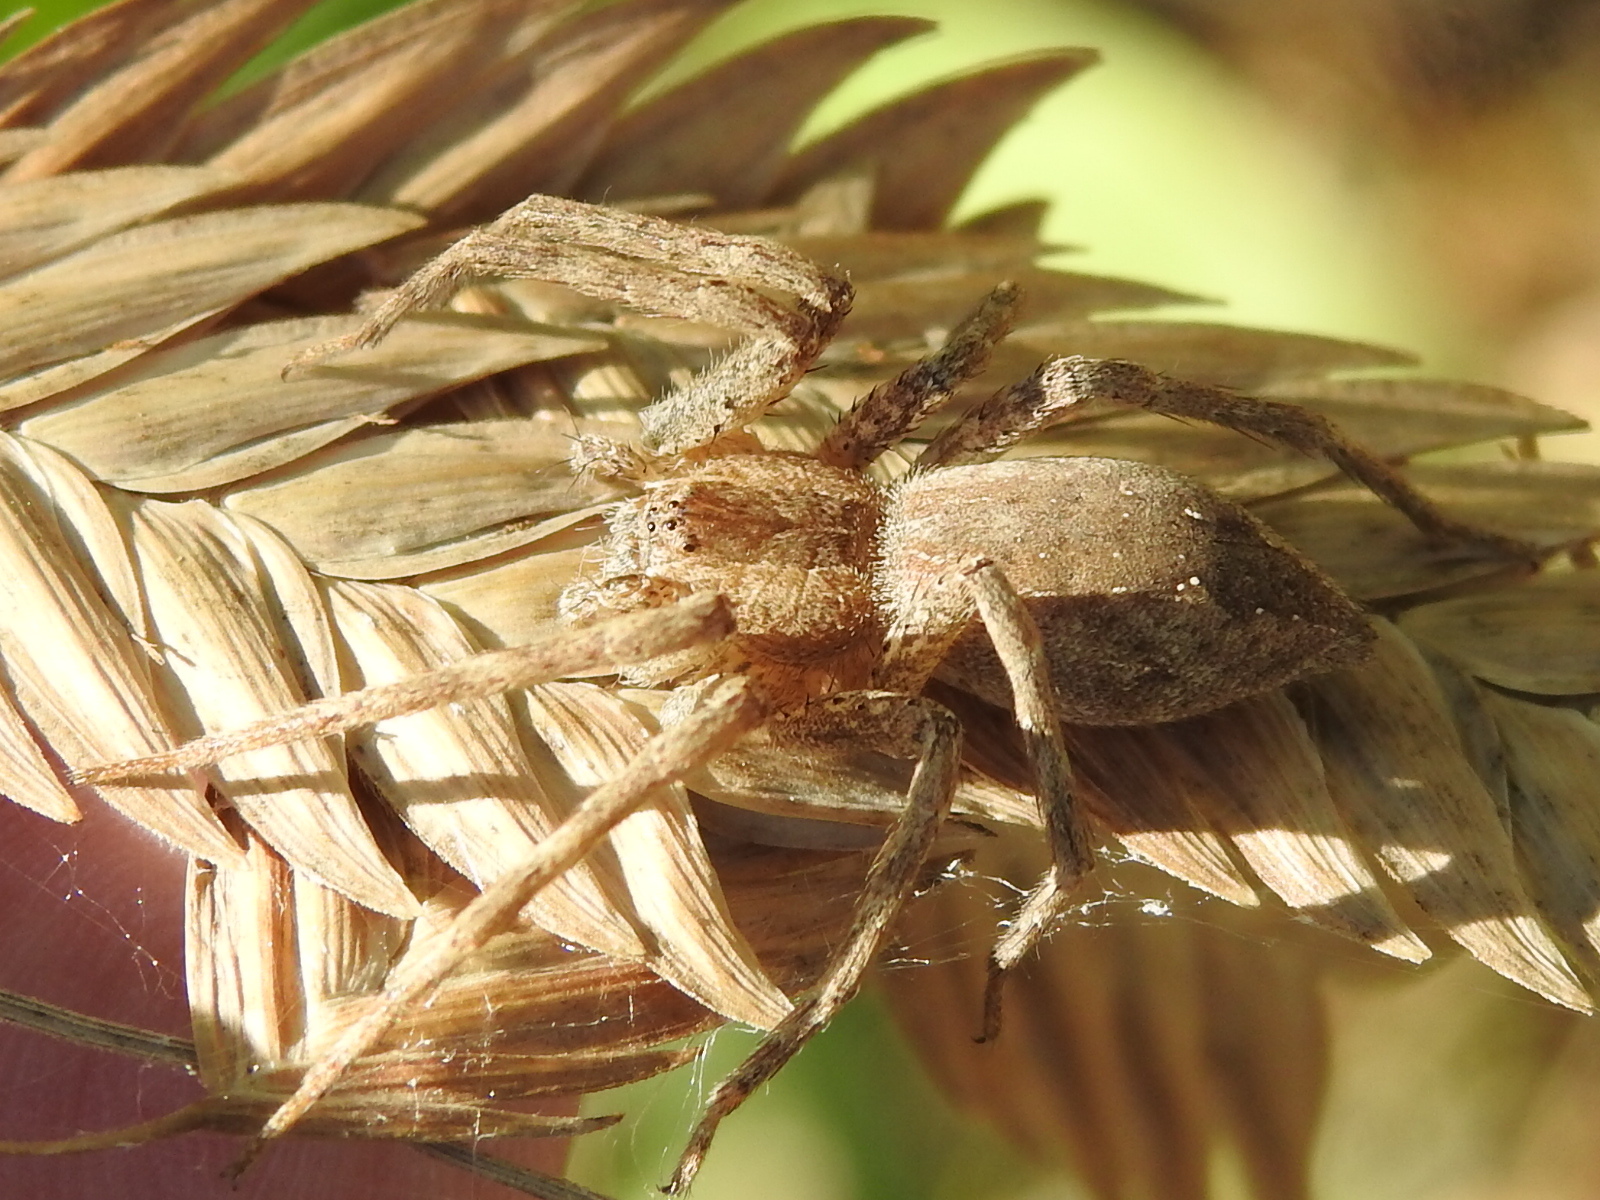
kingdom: Animalia
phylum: Arthropoda
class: Arachnida
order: Araneae
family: Pisauridae
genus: Pisaurina
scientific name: Pisaurina mira
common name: American nursery web spider
